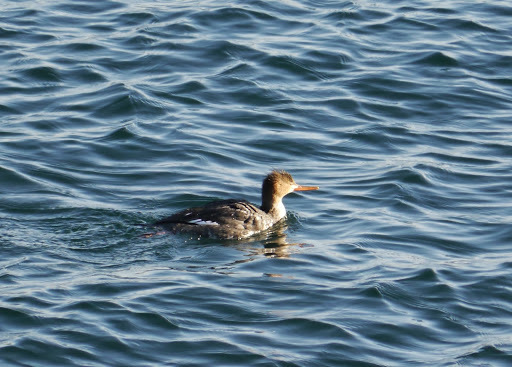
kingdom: Animalia
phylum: Chordata
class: Aves
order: Anseriformes
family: Anatidae
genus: Mergus
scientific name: Mergus serrator
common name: Red-breasted merganser
